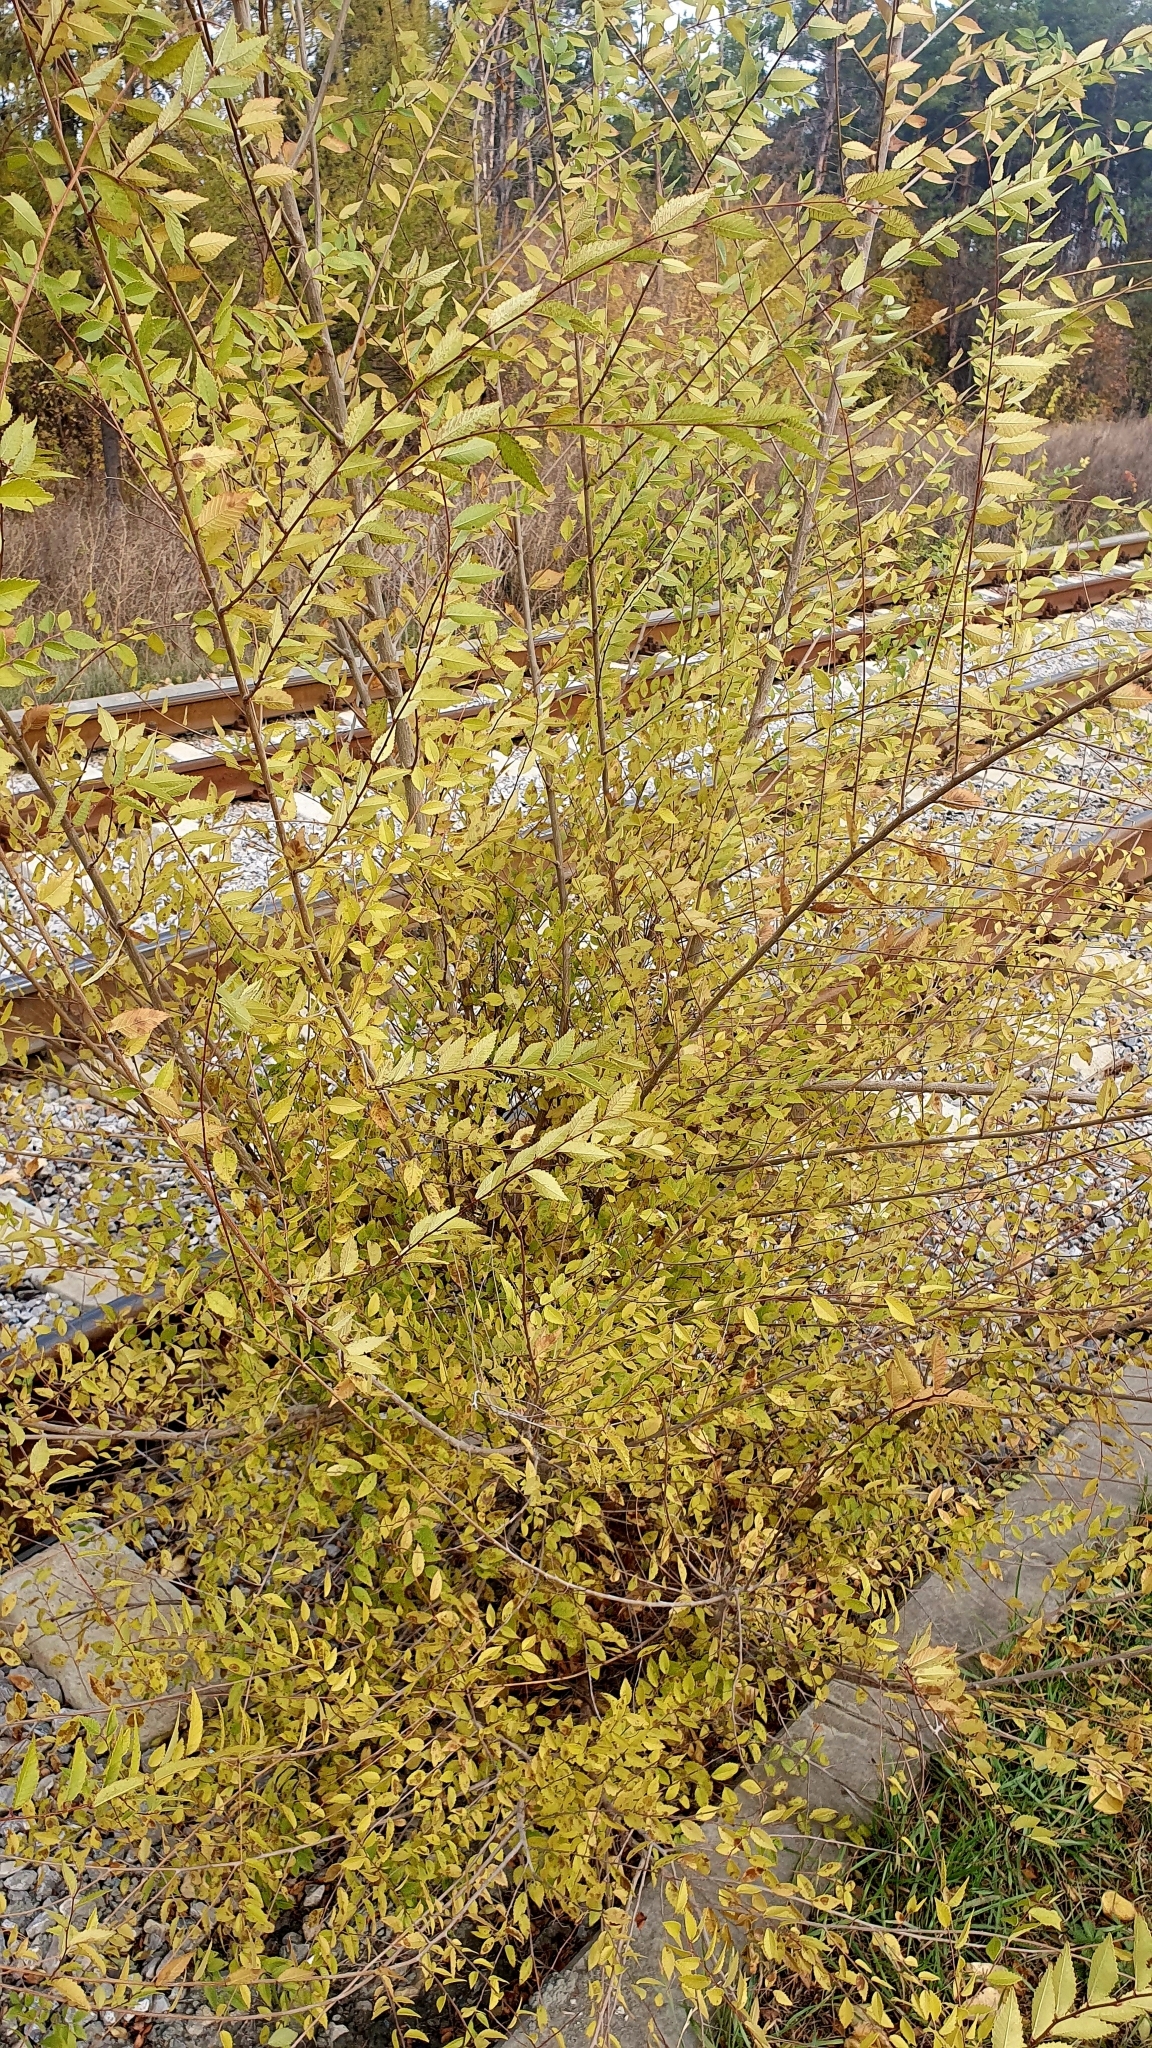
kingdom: Plantae
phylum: Tracheophyta
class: Magnoliopsida
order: Rosales
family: Ulmaceae
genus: Ulmus
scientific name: Ulmus pumila
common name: Siberian elm
